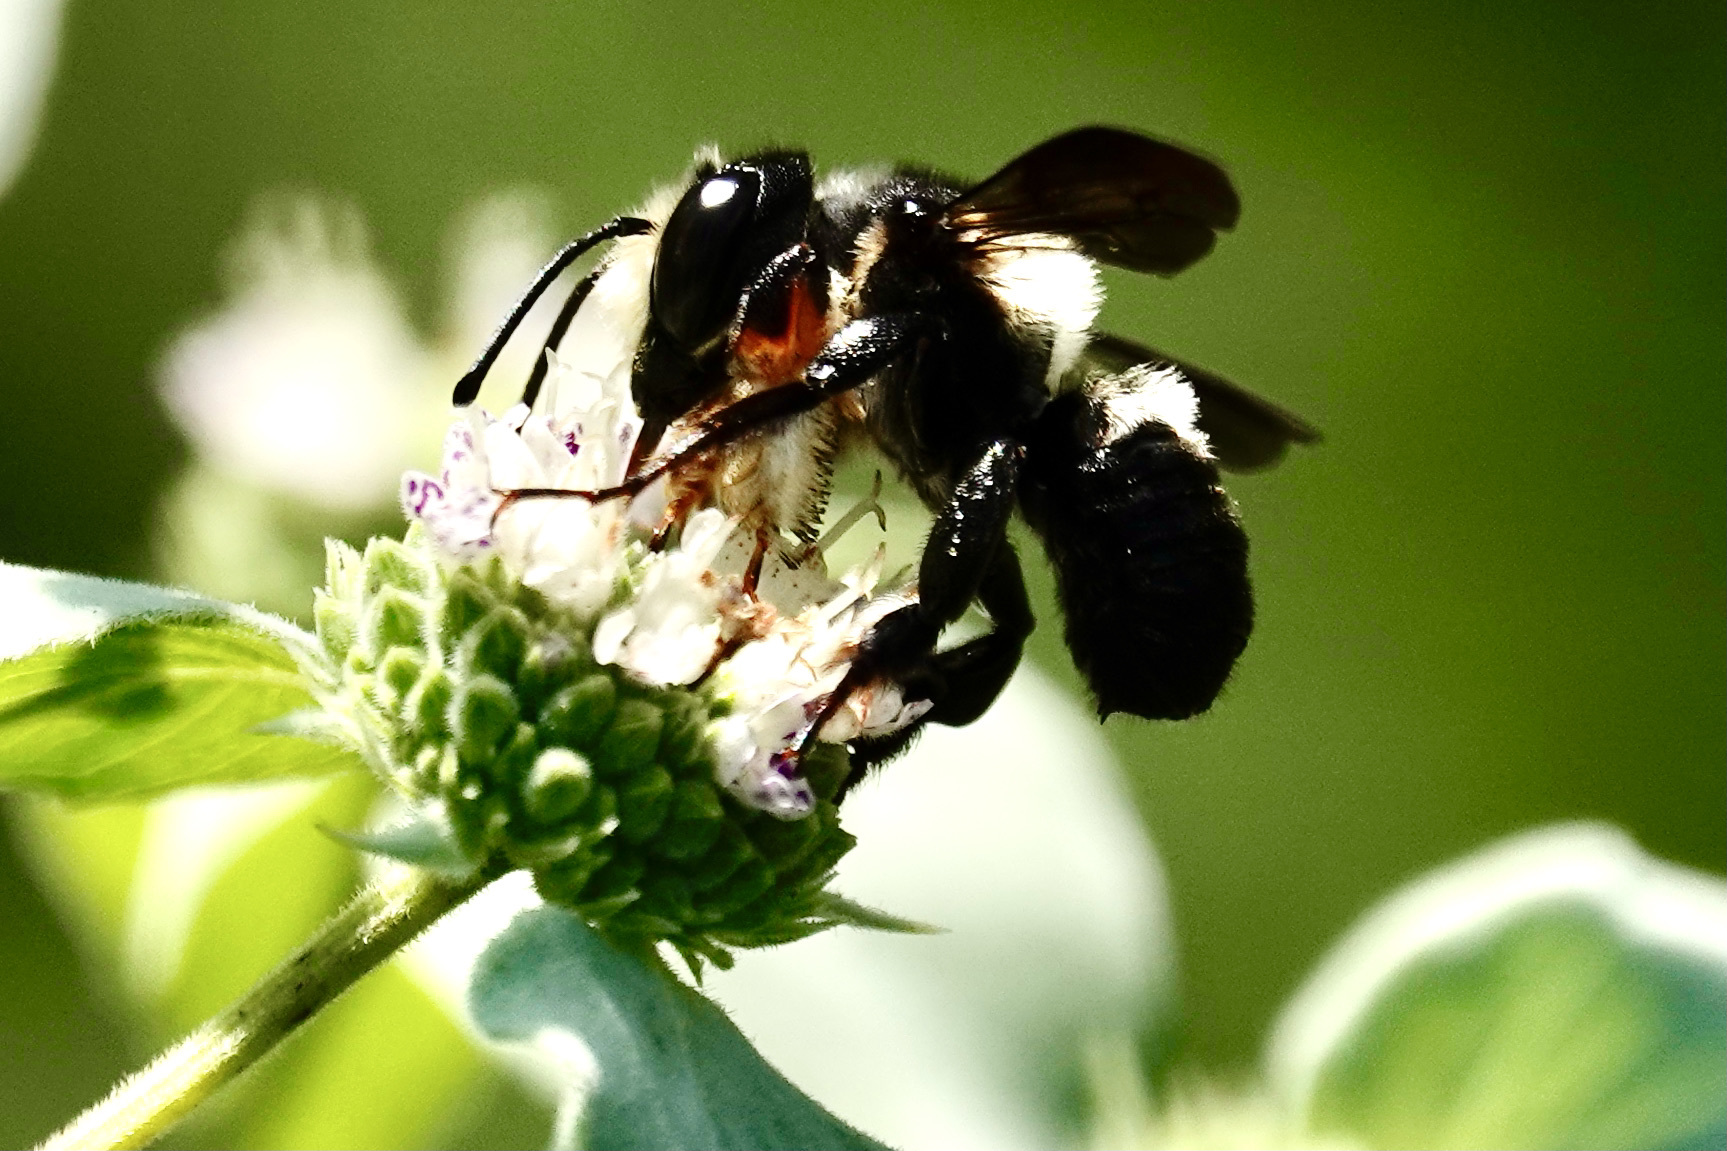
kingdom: Animalia
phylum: Arthropoda
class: Insecta
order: Hymenoptera
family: Megachilidae
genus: Megachile
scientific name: Megachile xylocopoides
